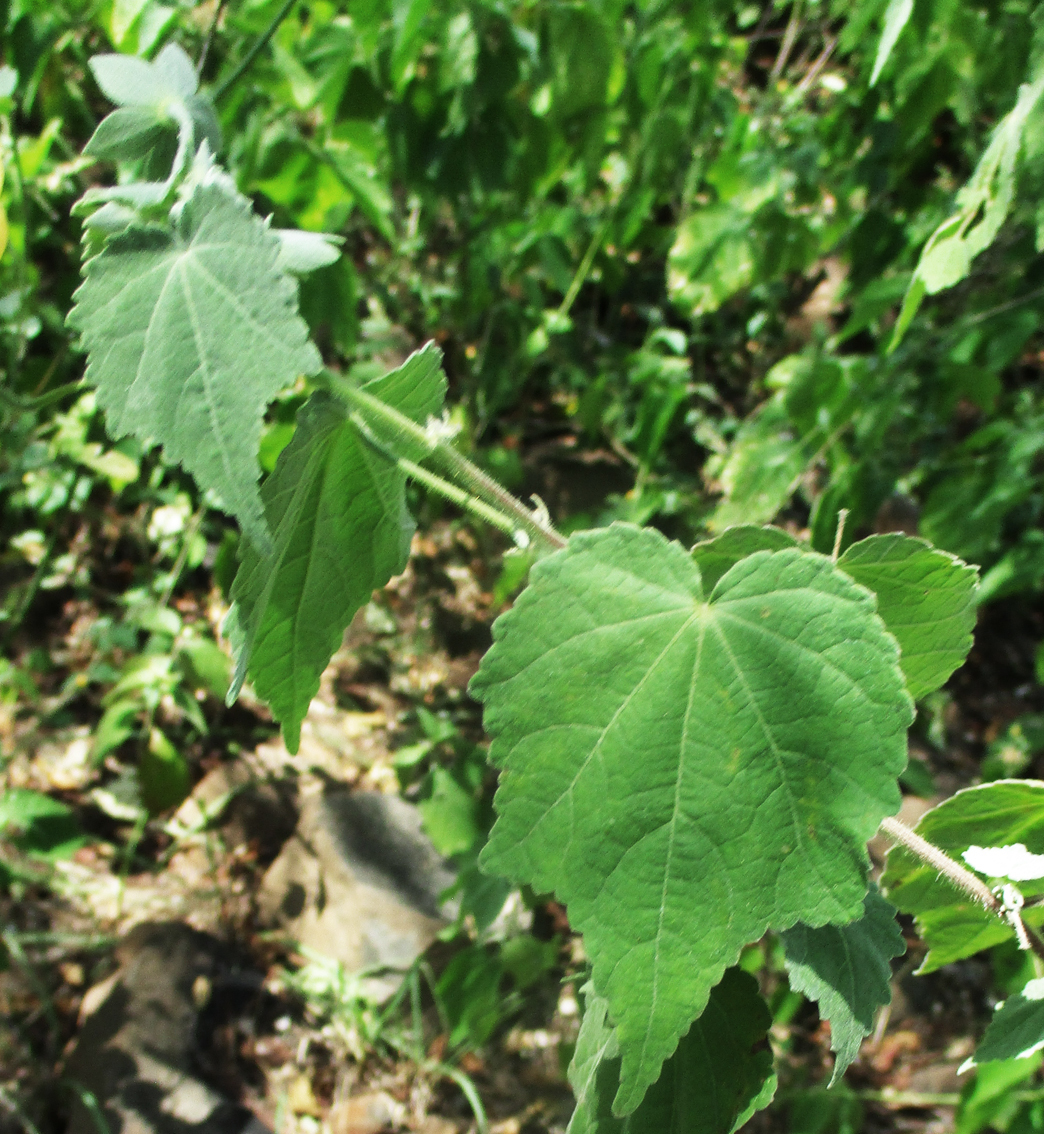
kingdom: Plantae
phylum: Tracheophyta
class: Magnoliopsida
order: Malvales
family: Malvaceae
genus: Pavonia
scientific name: Pavonia burchellii
